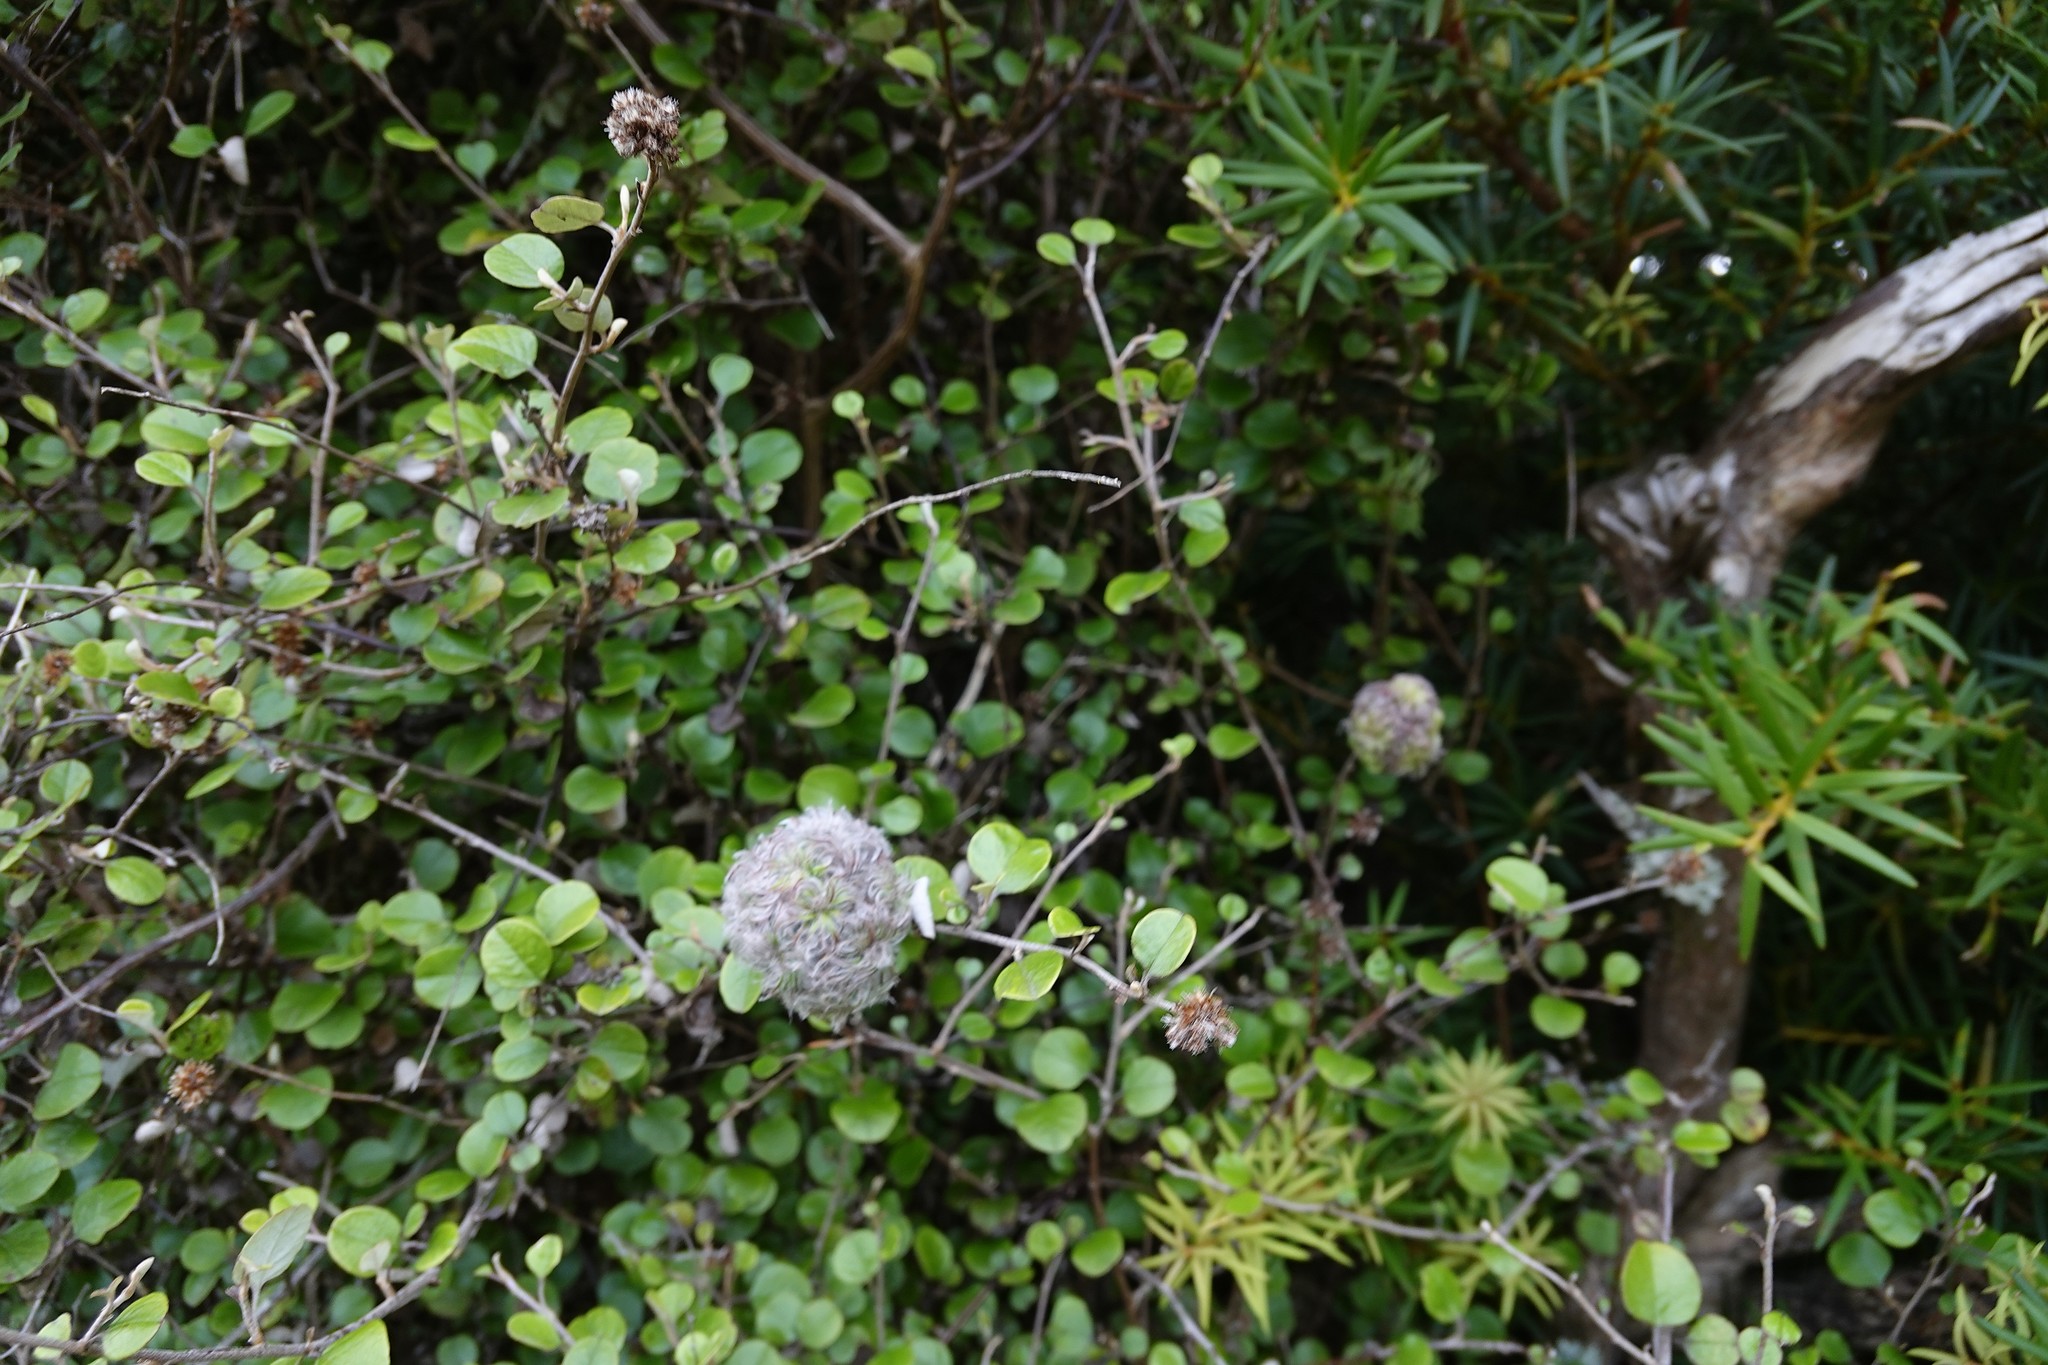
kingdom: Plantae
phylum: Tracheophyta
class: Magnoliopsida
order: Asterales
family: Asteraceae
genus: Ozothamnus
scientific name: Ozothamnus glomeratus
